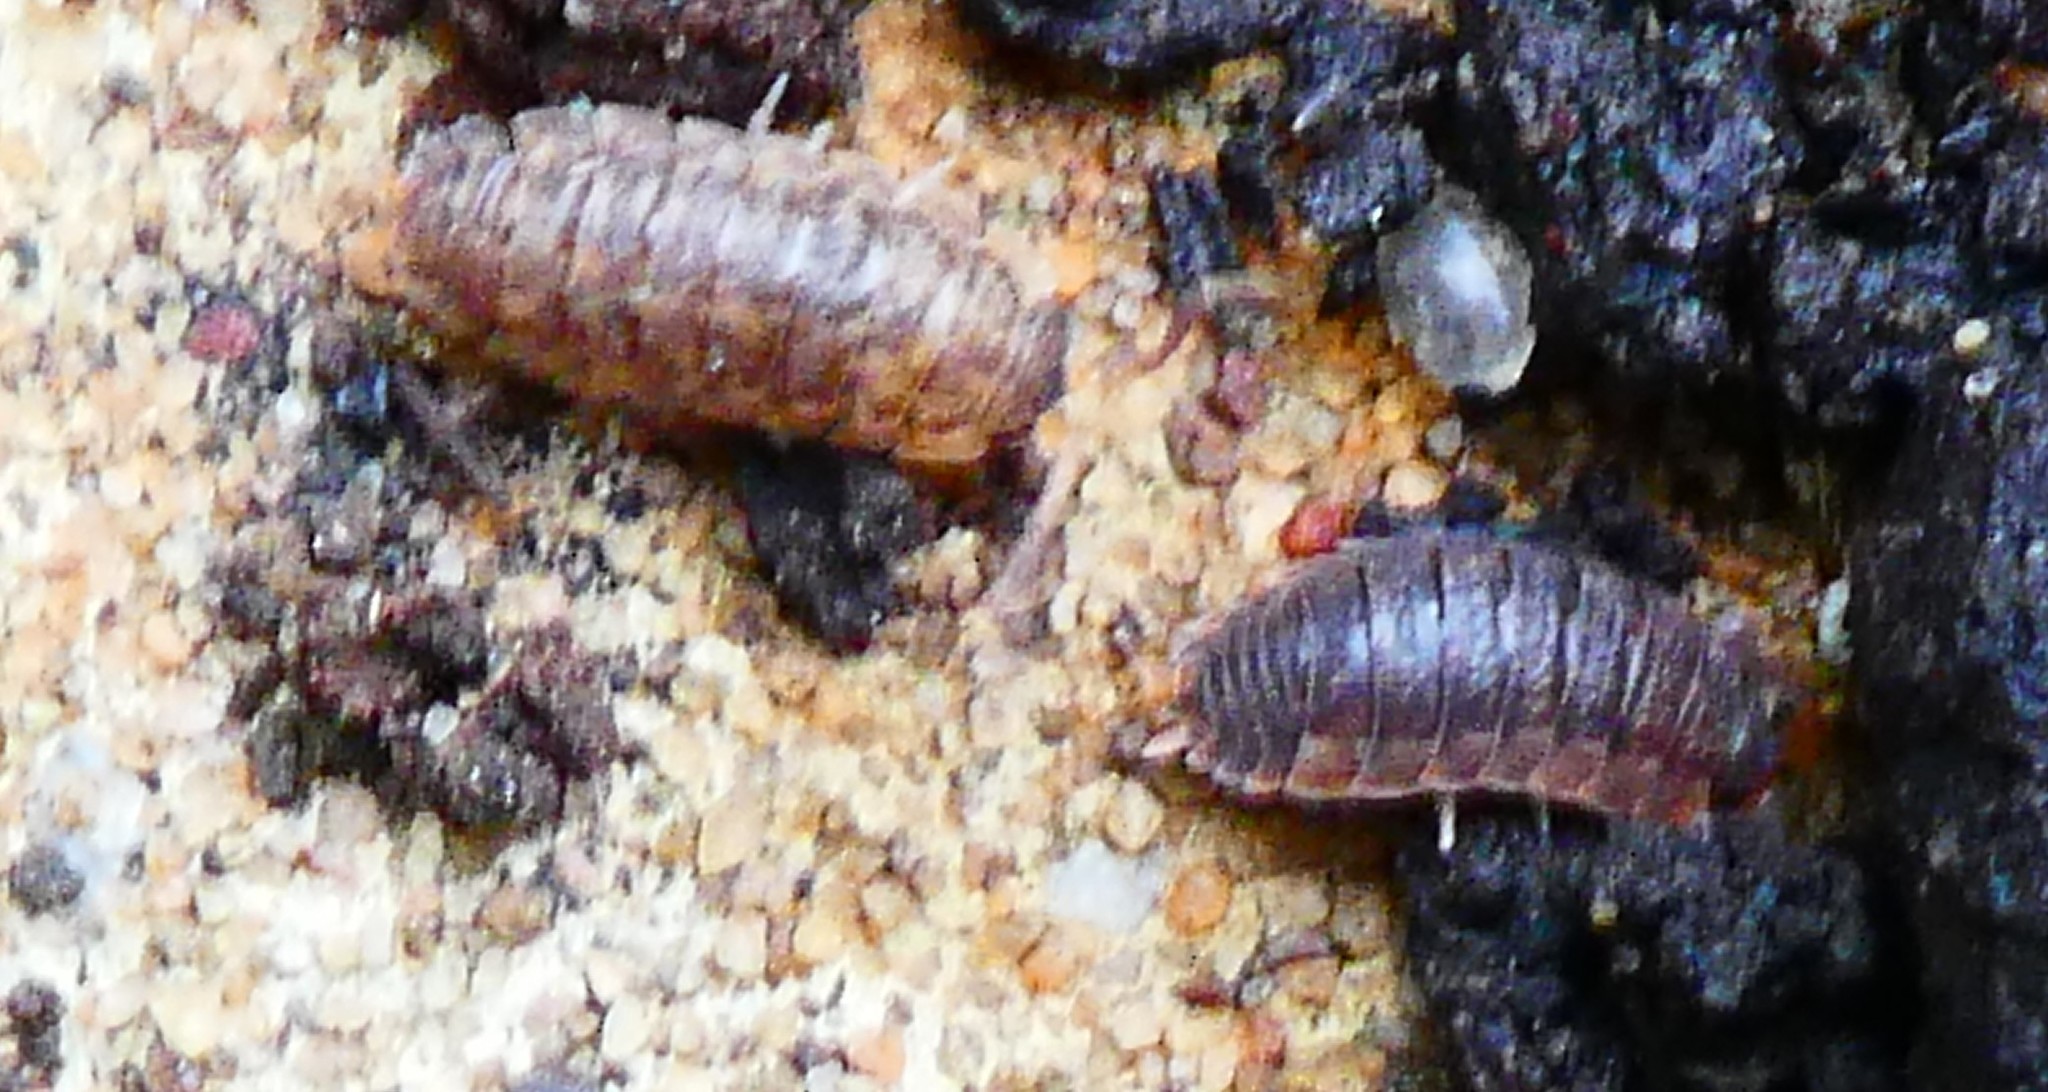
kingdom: Animalia
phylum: Arthropoda
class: Malacostraca
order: Isopoda
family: Porcellionidae
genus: Porcellio
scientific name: Porcellio scaber
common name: Common rough woodlouse
